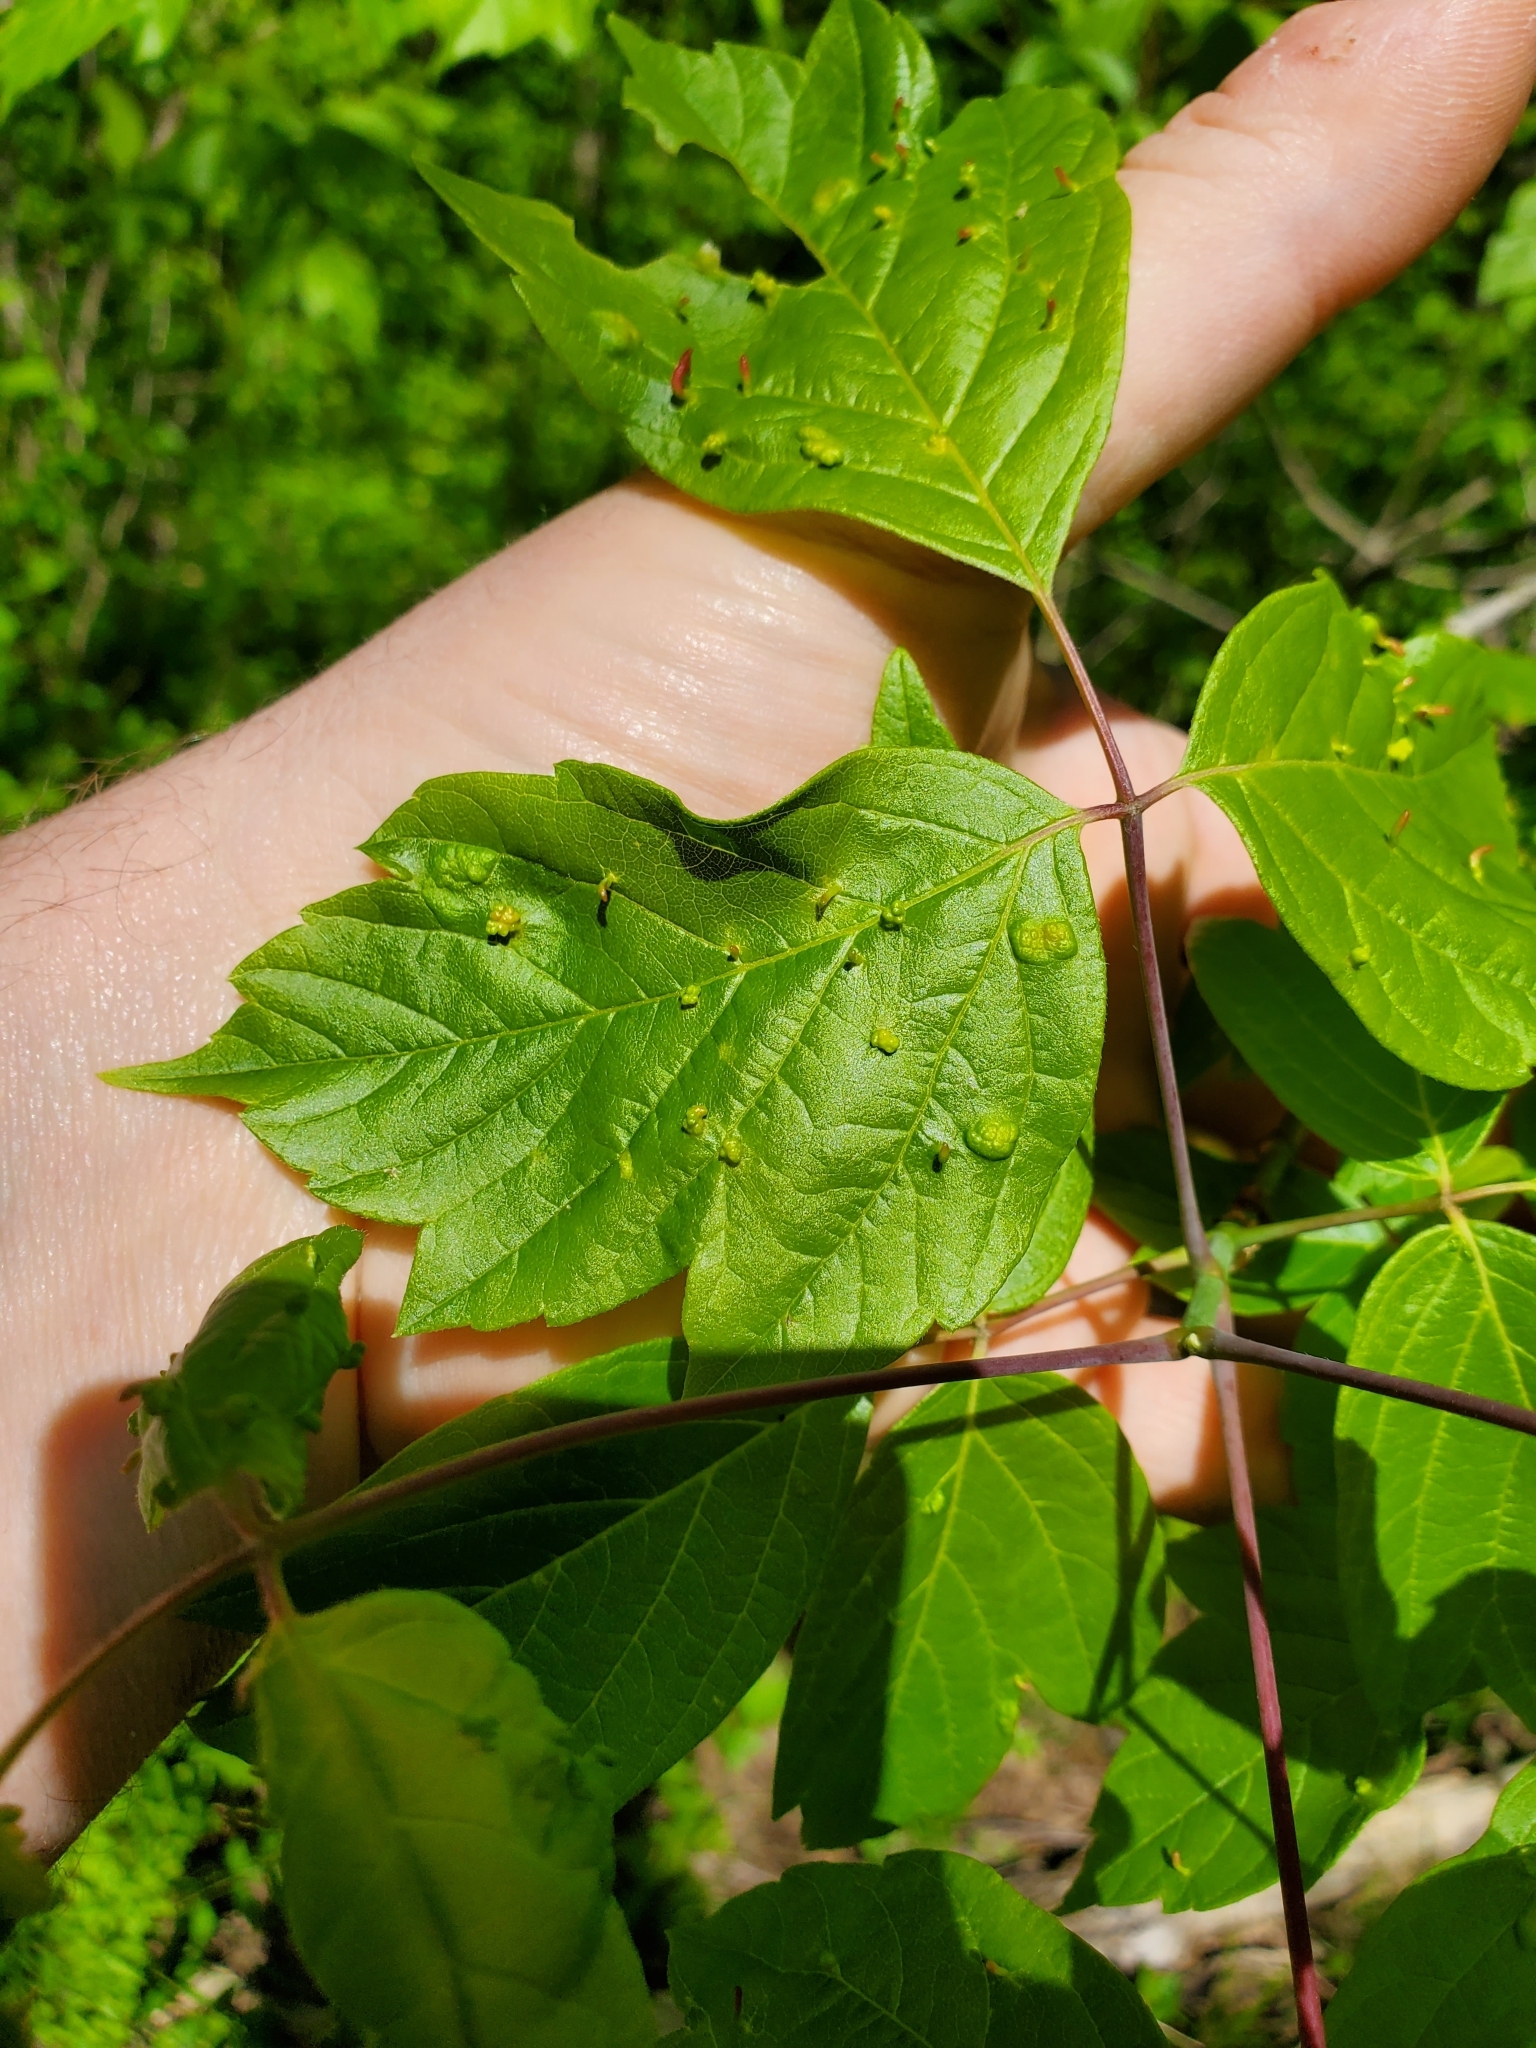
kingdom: Animalia
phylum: Arthropoda
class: Arachnida
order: Trombidiformes
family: Eriophyidae
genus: Aceria
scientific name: Aceria
